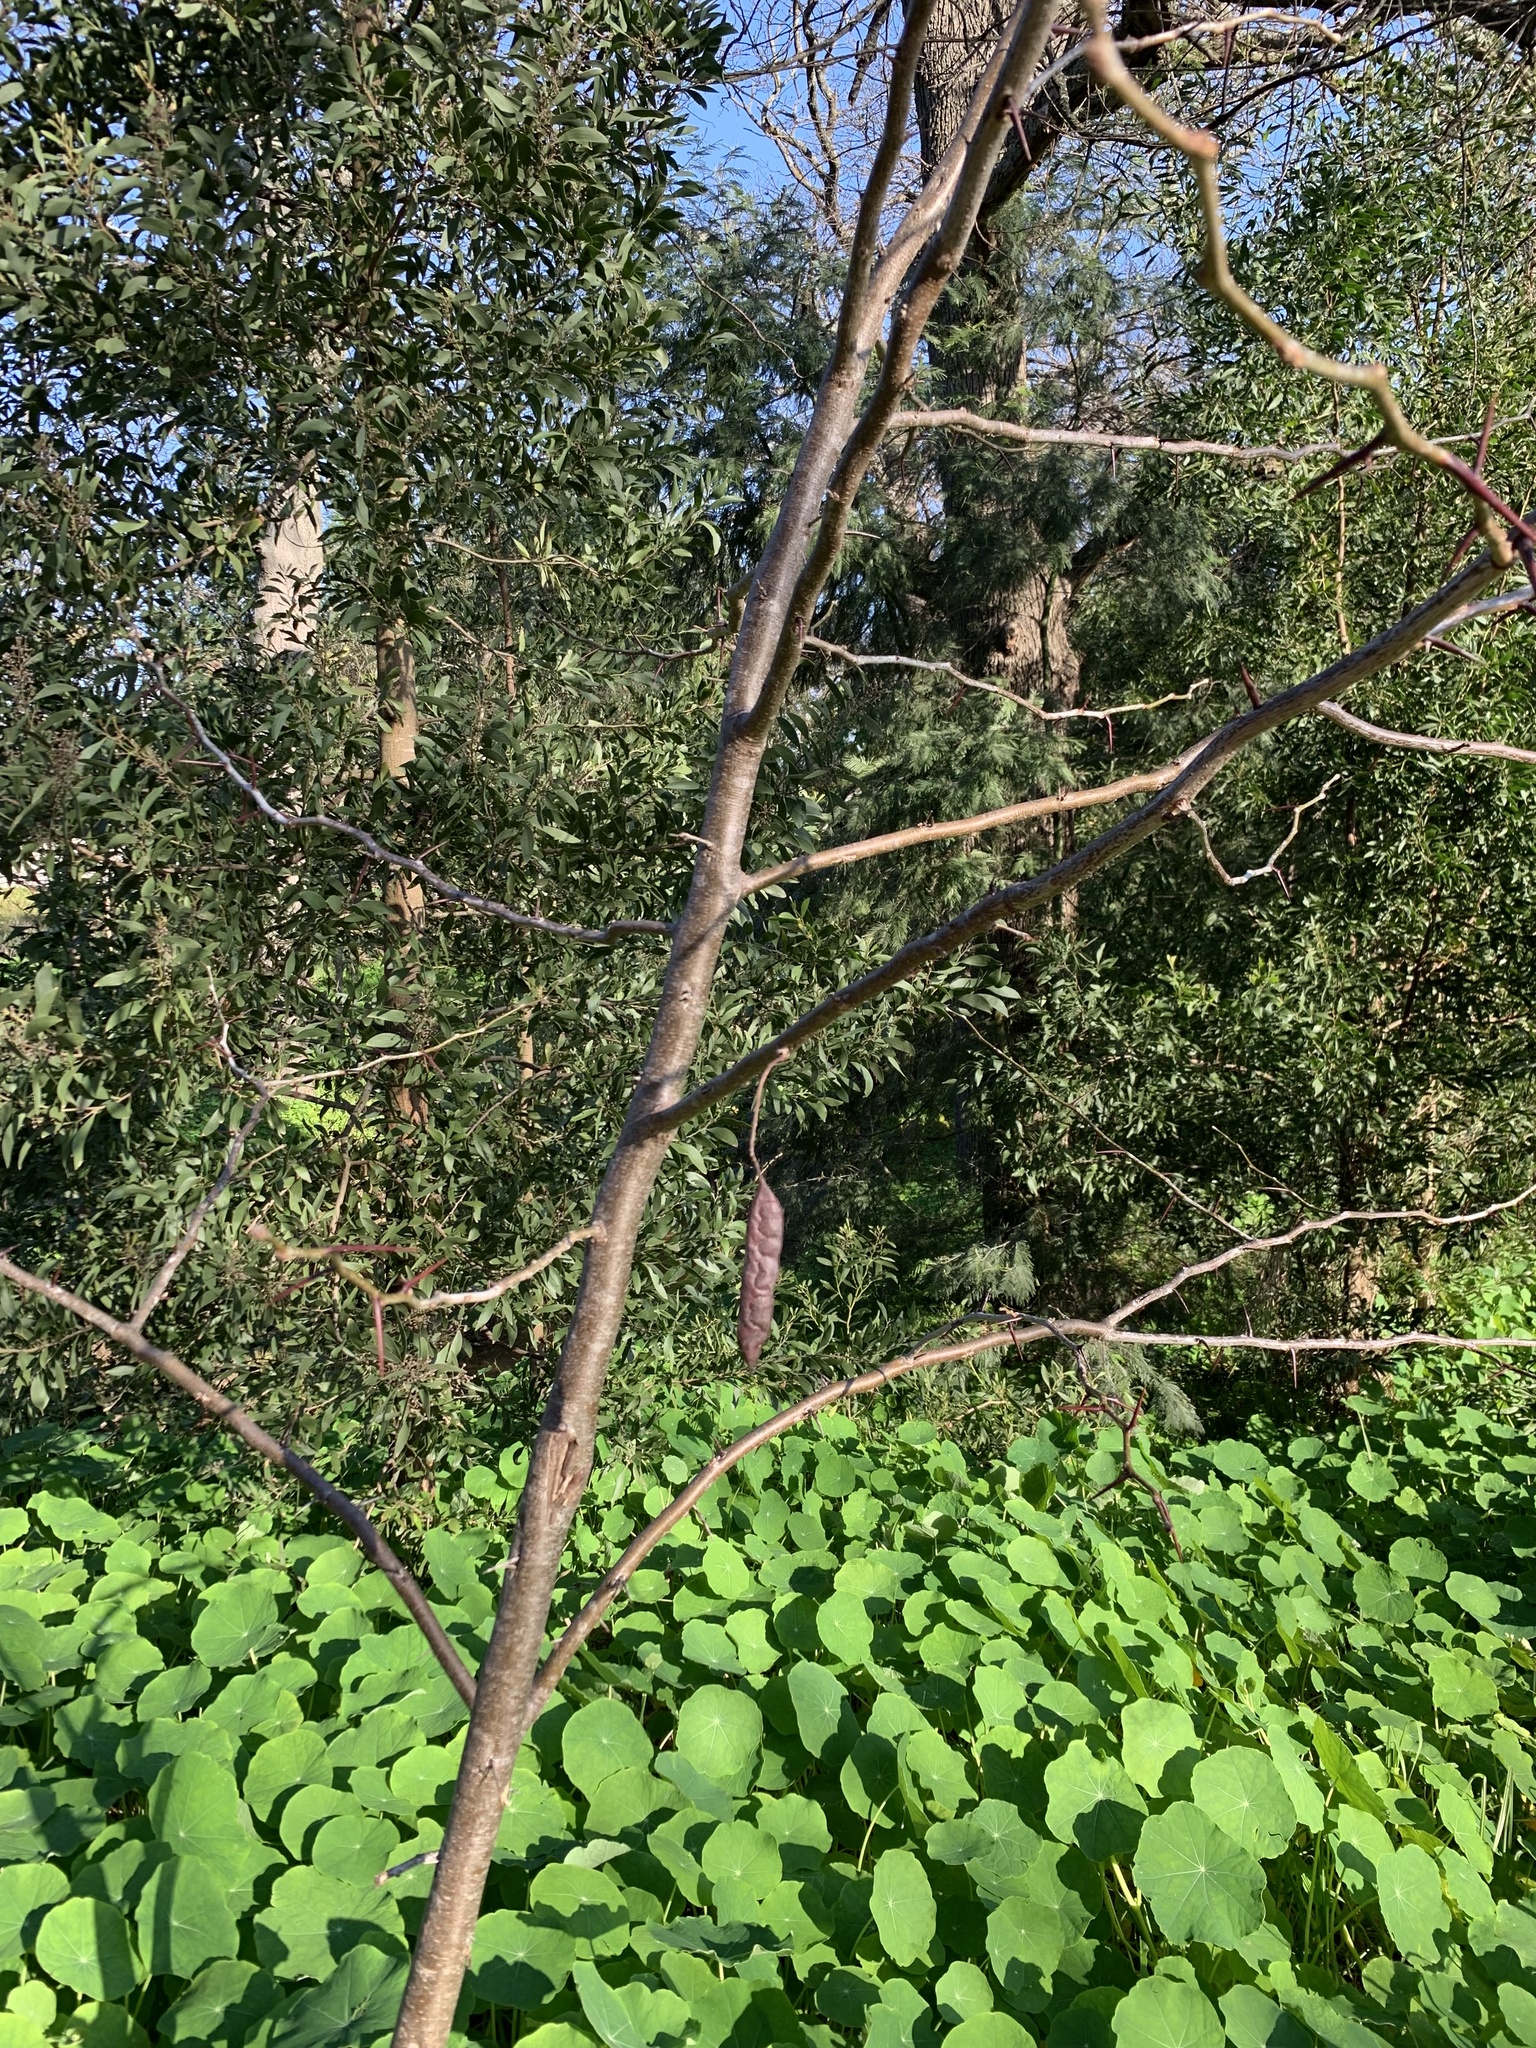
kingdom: Plantae
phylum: Tracheophyta
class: Magnoliopsida
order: Fabales
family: Fabaceae
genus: Gleditsia
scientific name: Gleditsia triacanthos
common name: Common honeylocust
